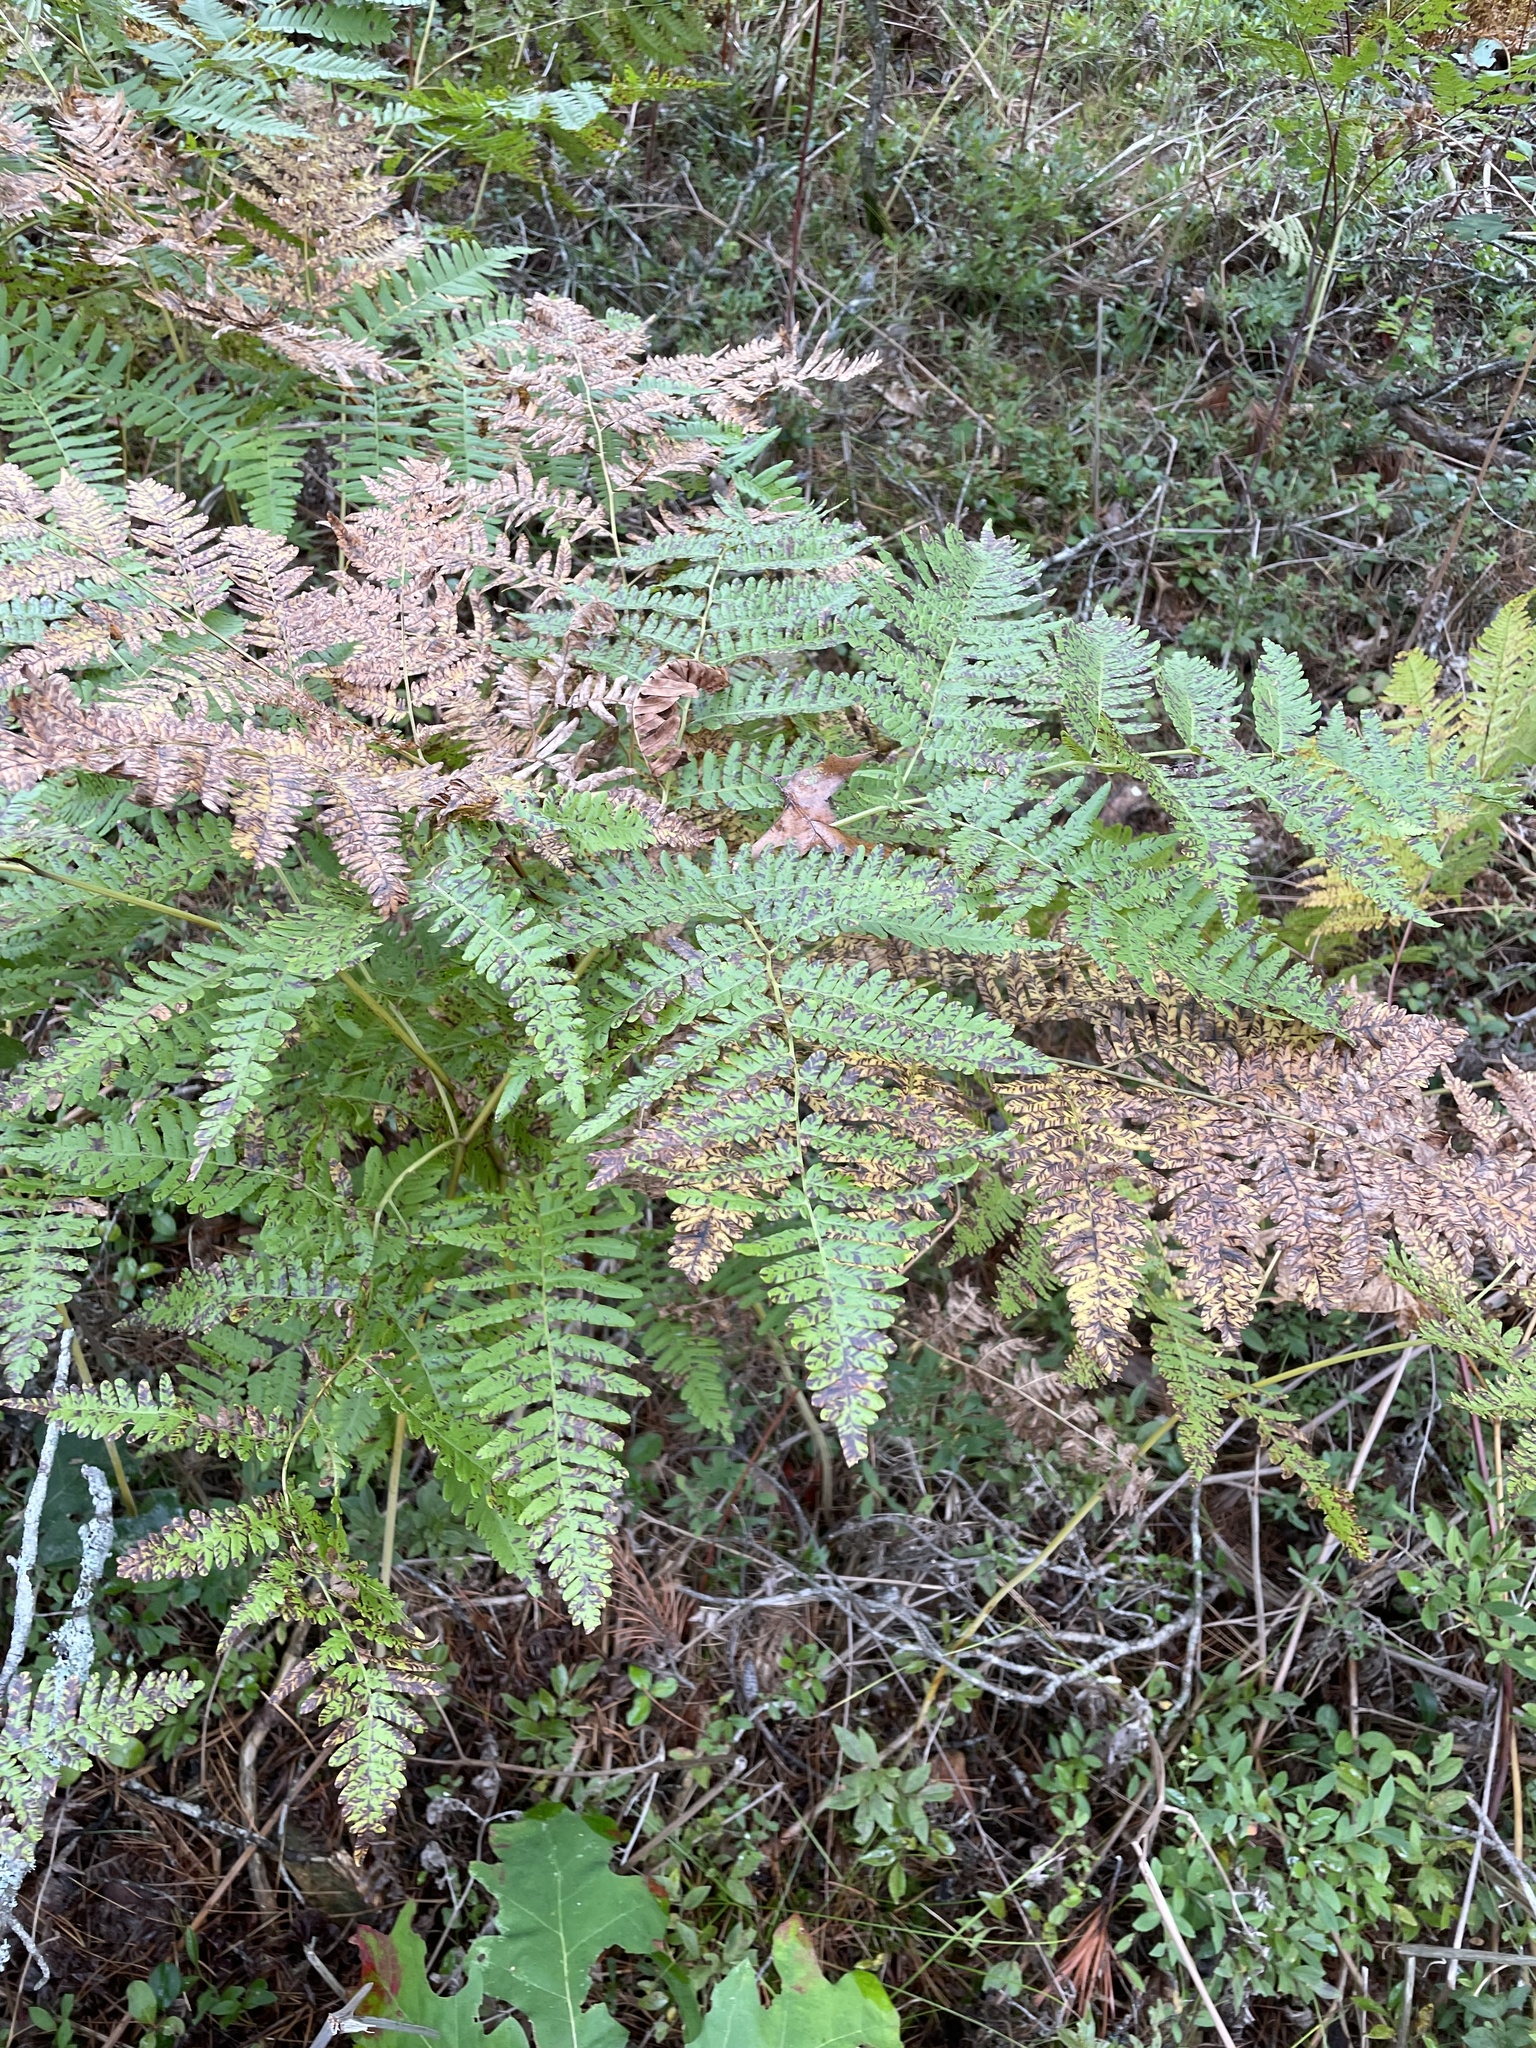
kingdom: Plantae
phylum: Tracheophyta
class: Polypodiopsida
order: Polypodiales
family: Dennstaedtiaceae
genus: Pteridium
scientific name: Pteridium aquilinum
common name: Bracken
